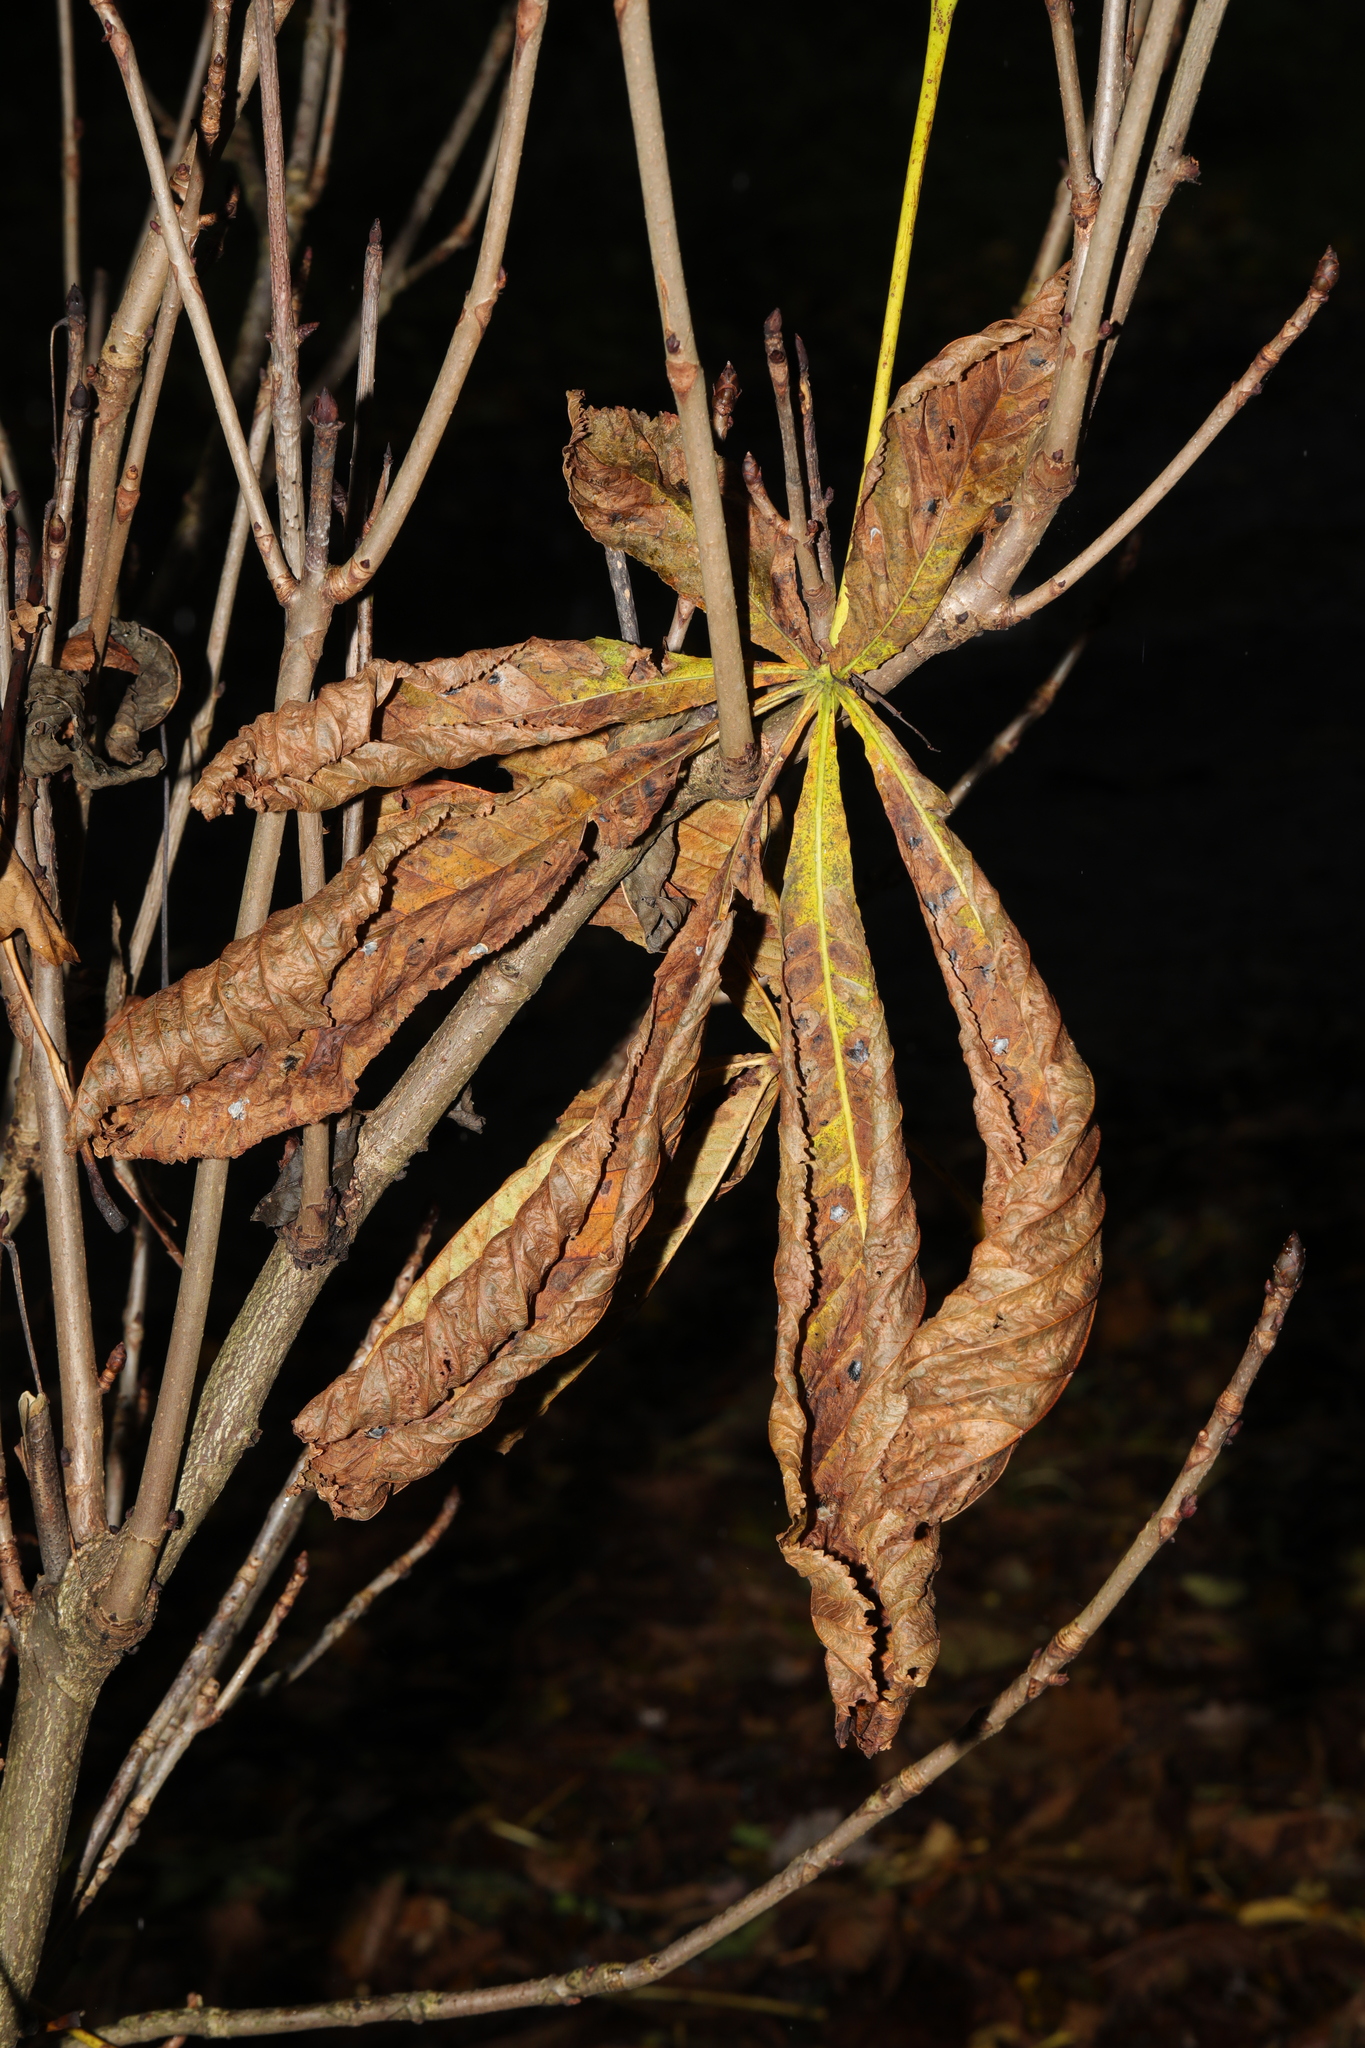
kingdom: Plantae
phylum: Tracheophyta
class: Magnoliopsida
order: Sapindales
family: Sapindaceae
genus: Aesculus
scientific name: Aesculus hippocastanum
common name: Horse-chestnut
